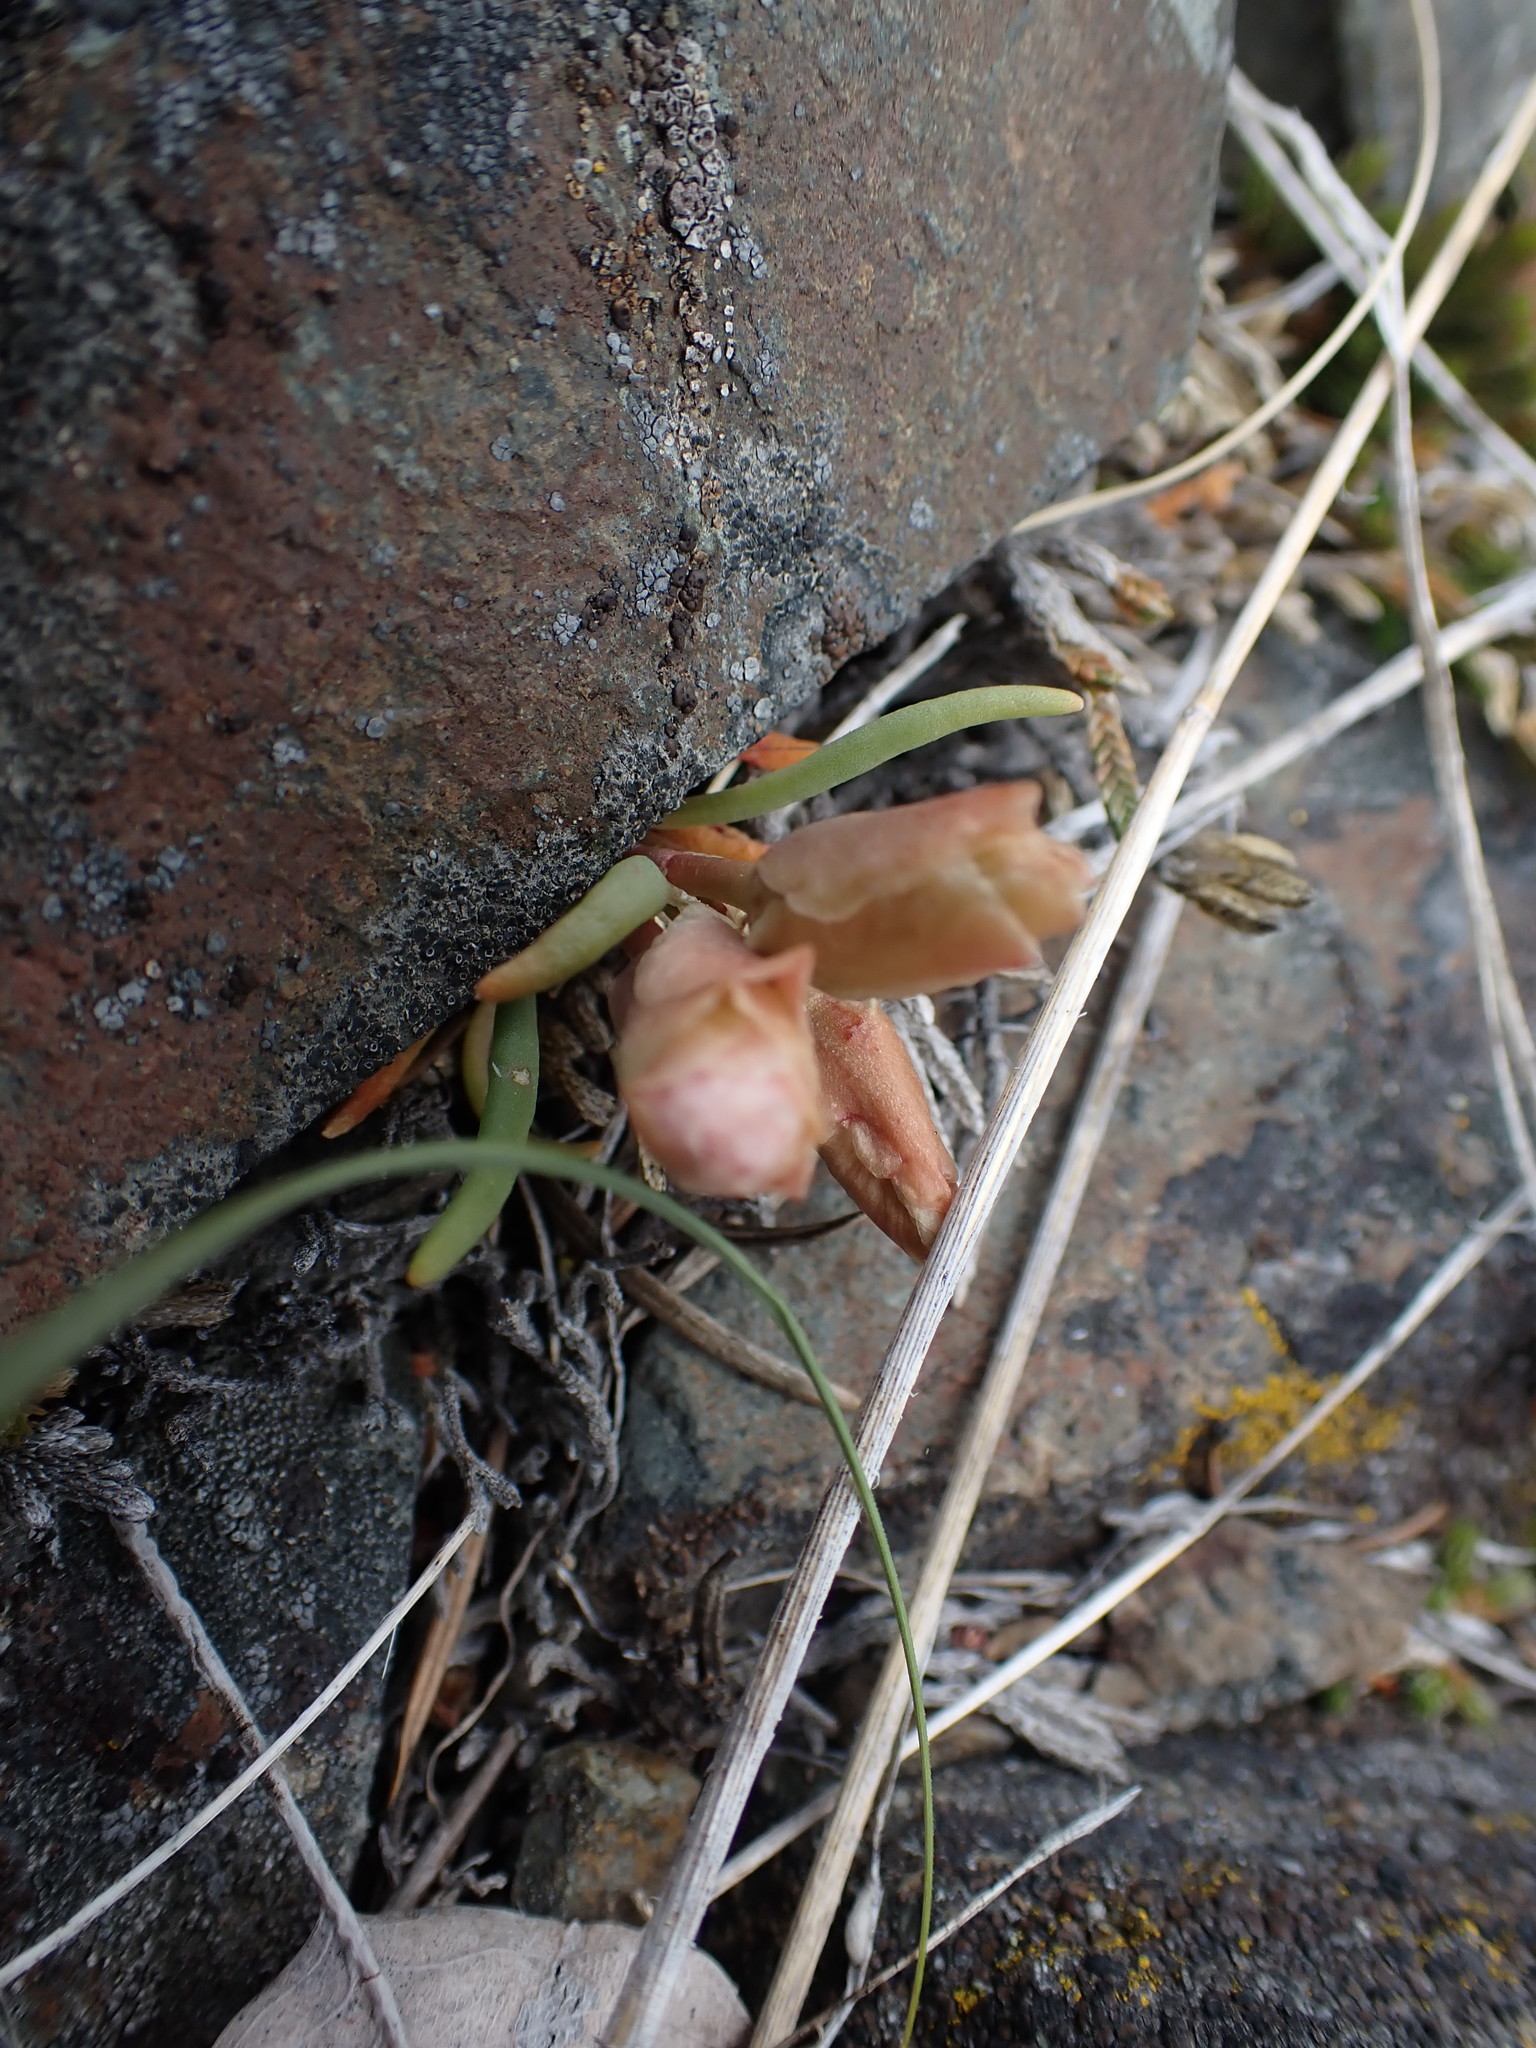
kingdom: Plantae
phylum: Tracheophyta
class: Magnoliopsida
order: Caryophyllales
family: Montiaceae
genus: Lewisia
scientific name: Lewisia rediviva
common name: Bitter-root
